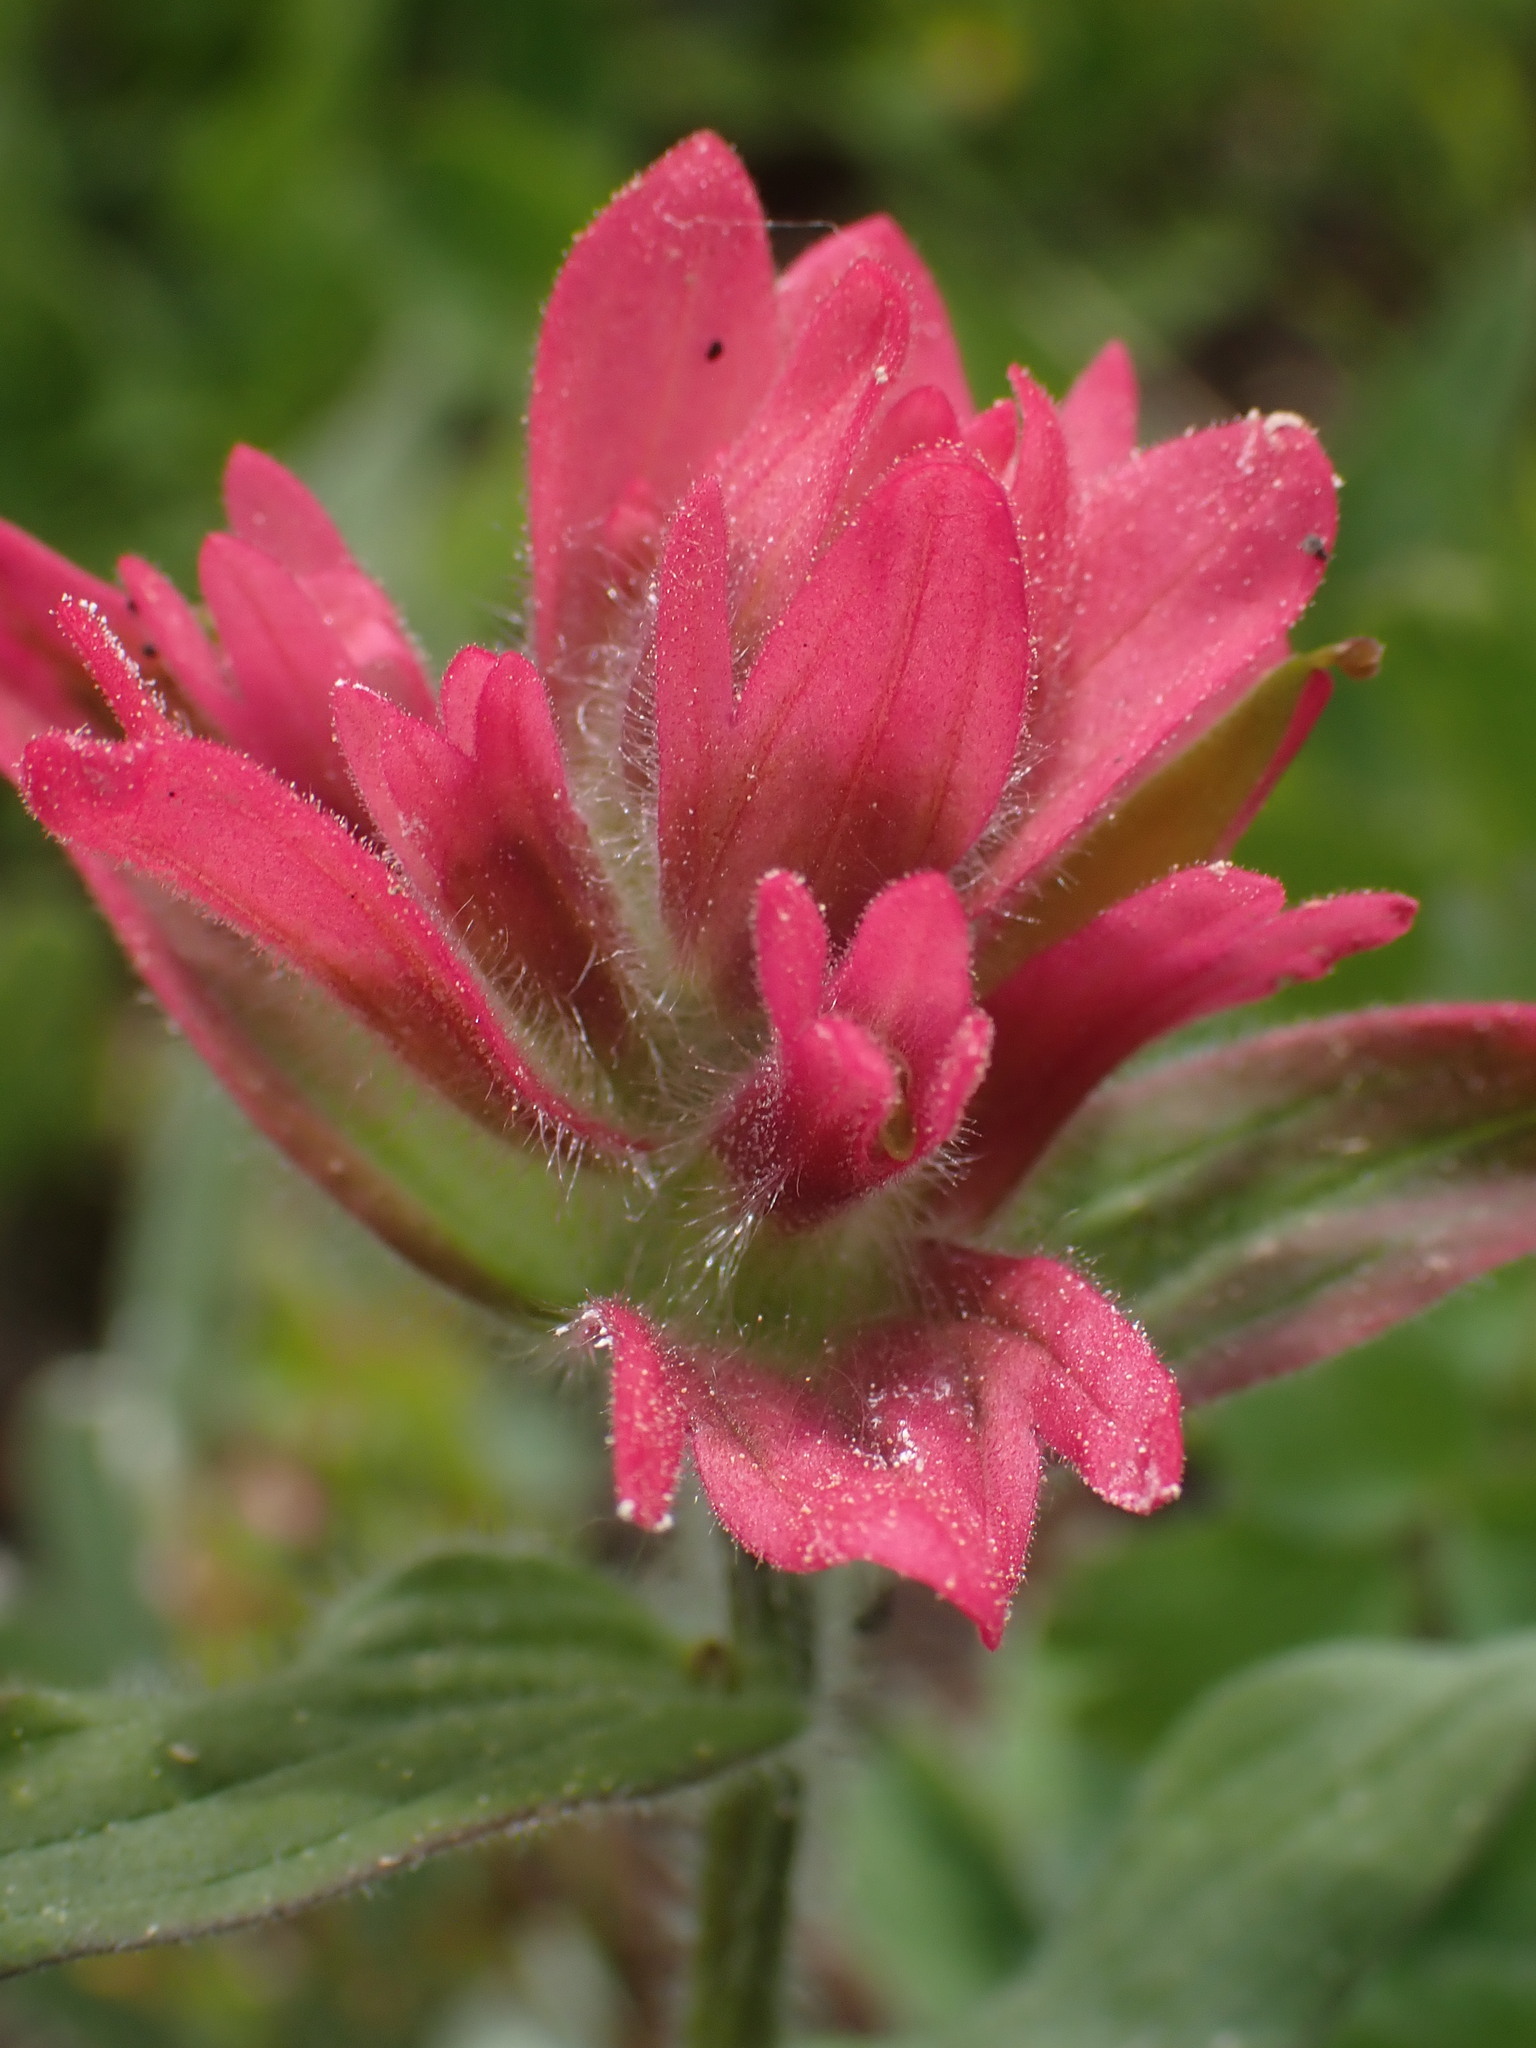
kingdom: Plantae
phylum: Tracheophyta
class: Magnoliopsida
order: Lamiales
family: Orobanchaceae
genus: Castilleja
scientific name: Castilleja rhexifolia
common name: Rocky mountain paintbrush
